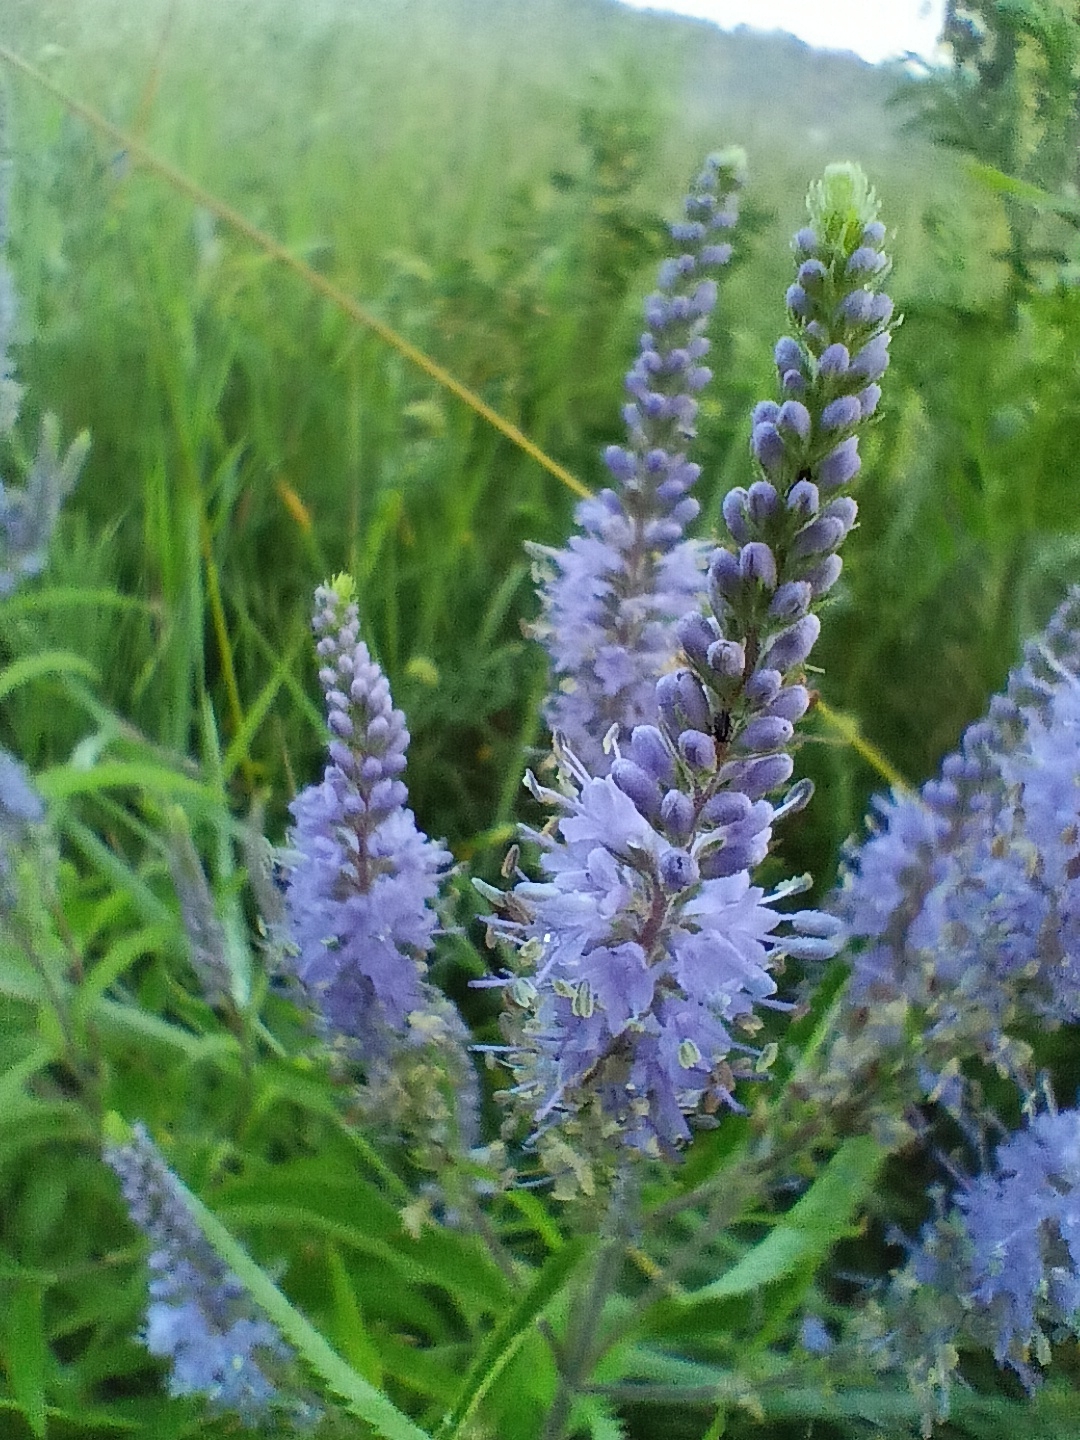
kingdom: Plantae
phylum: Tracheophyta
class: Magnoliopsida
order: Lamiales
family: Plantaginaceae
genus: Veronica
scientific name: Veronica longifolia
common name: Garden speedwell
